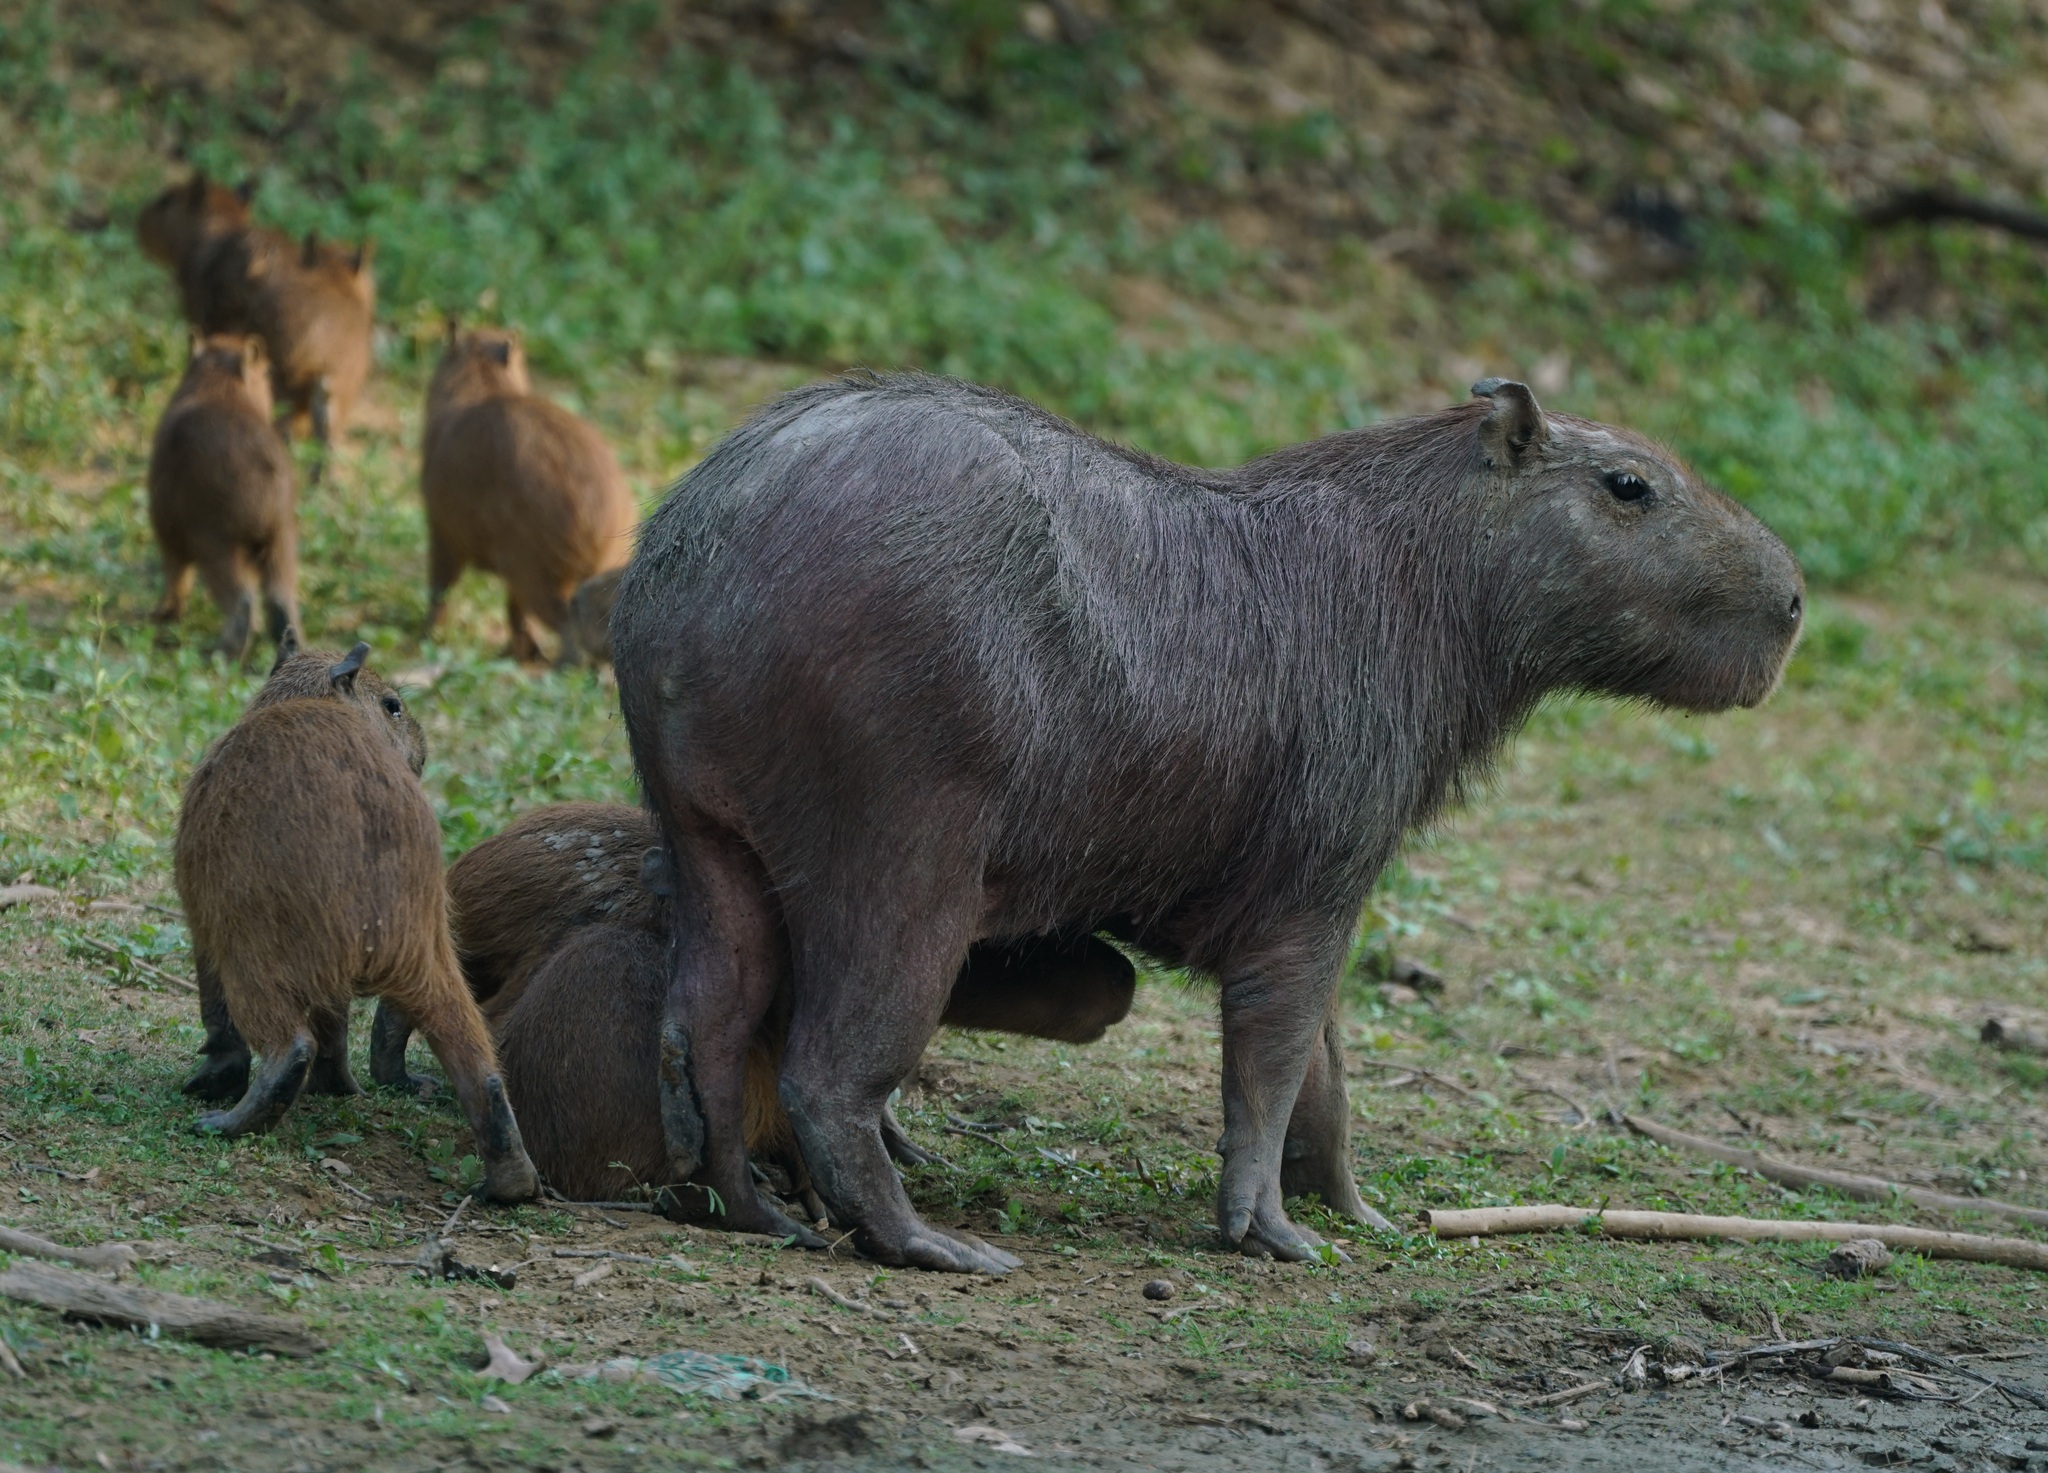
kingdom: Animalia
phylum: Chordata
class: Mammalia
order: Rodentia
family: Caviidae
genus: Hydrochoerus
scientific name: Hydrochoerus hydrochaeris
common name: Capybara
